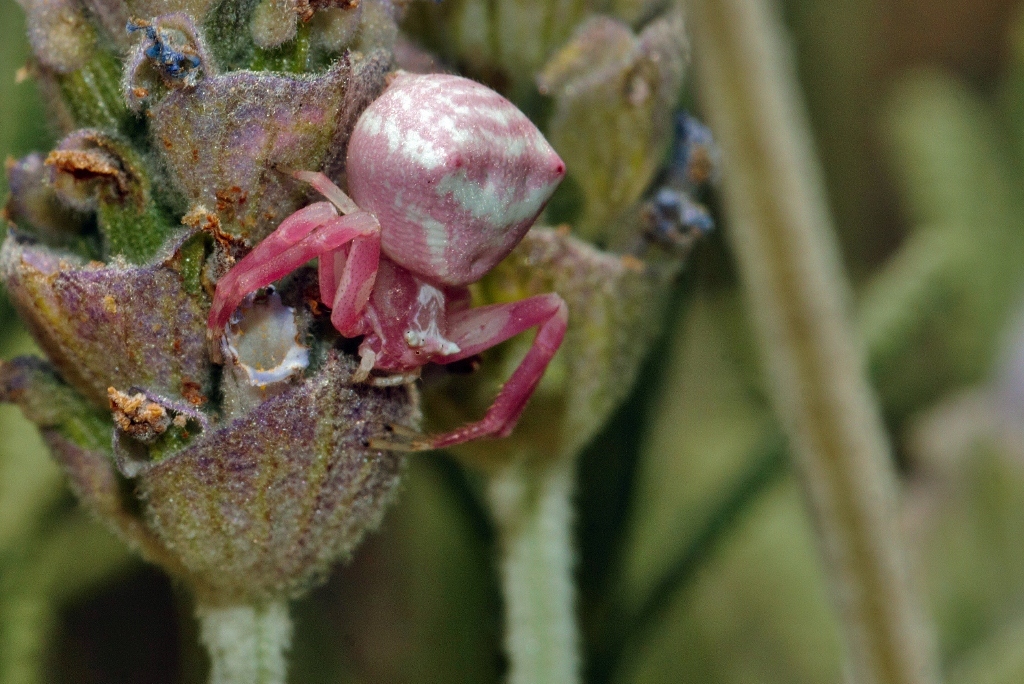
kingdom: Animalia
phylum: Arthropoda
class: Arachnida
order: Araneae
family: Thomisidae
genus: Thomisus
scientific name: Thomisus citrinellus
